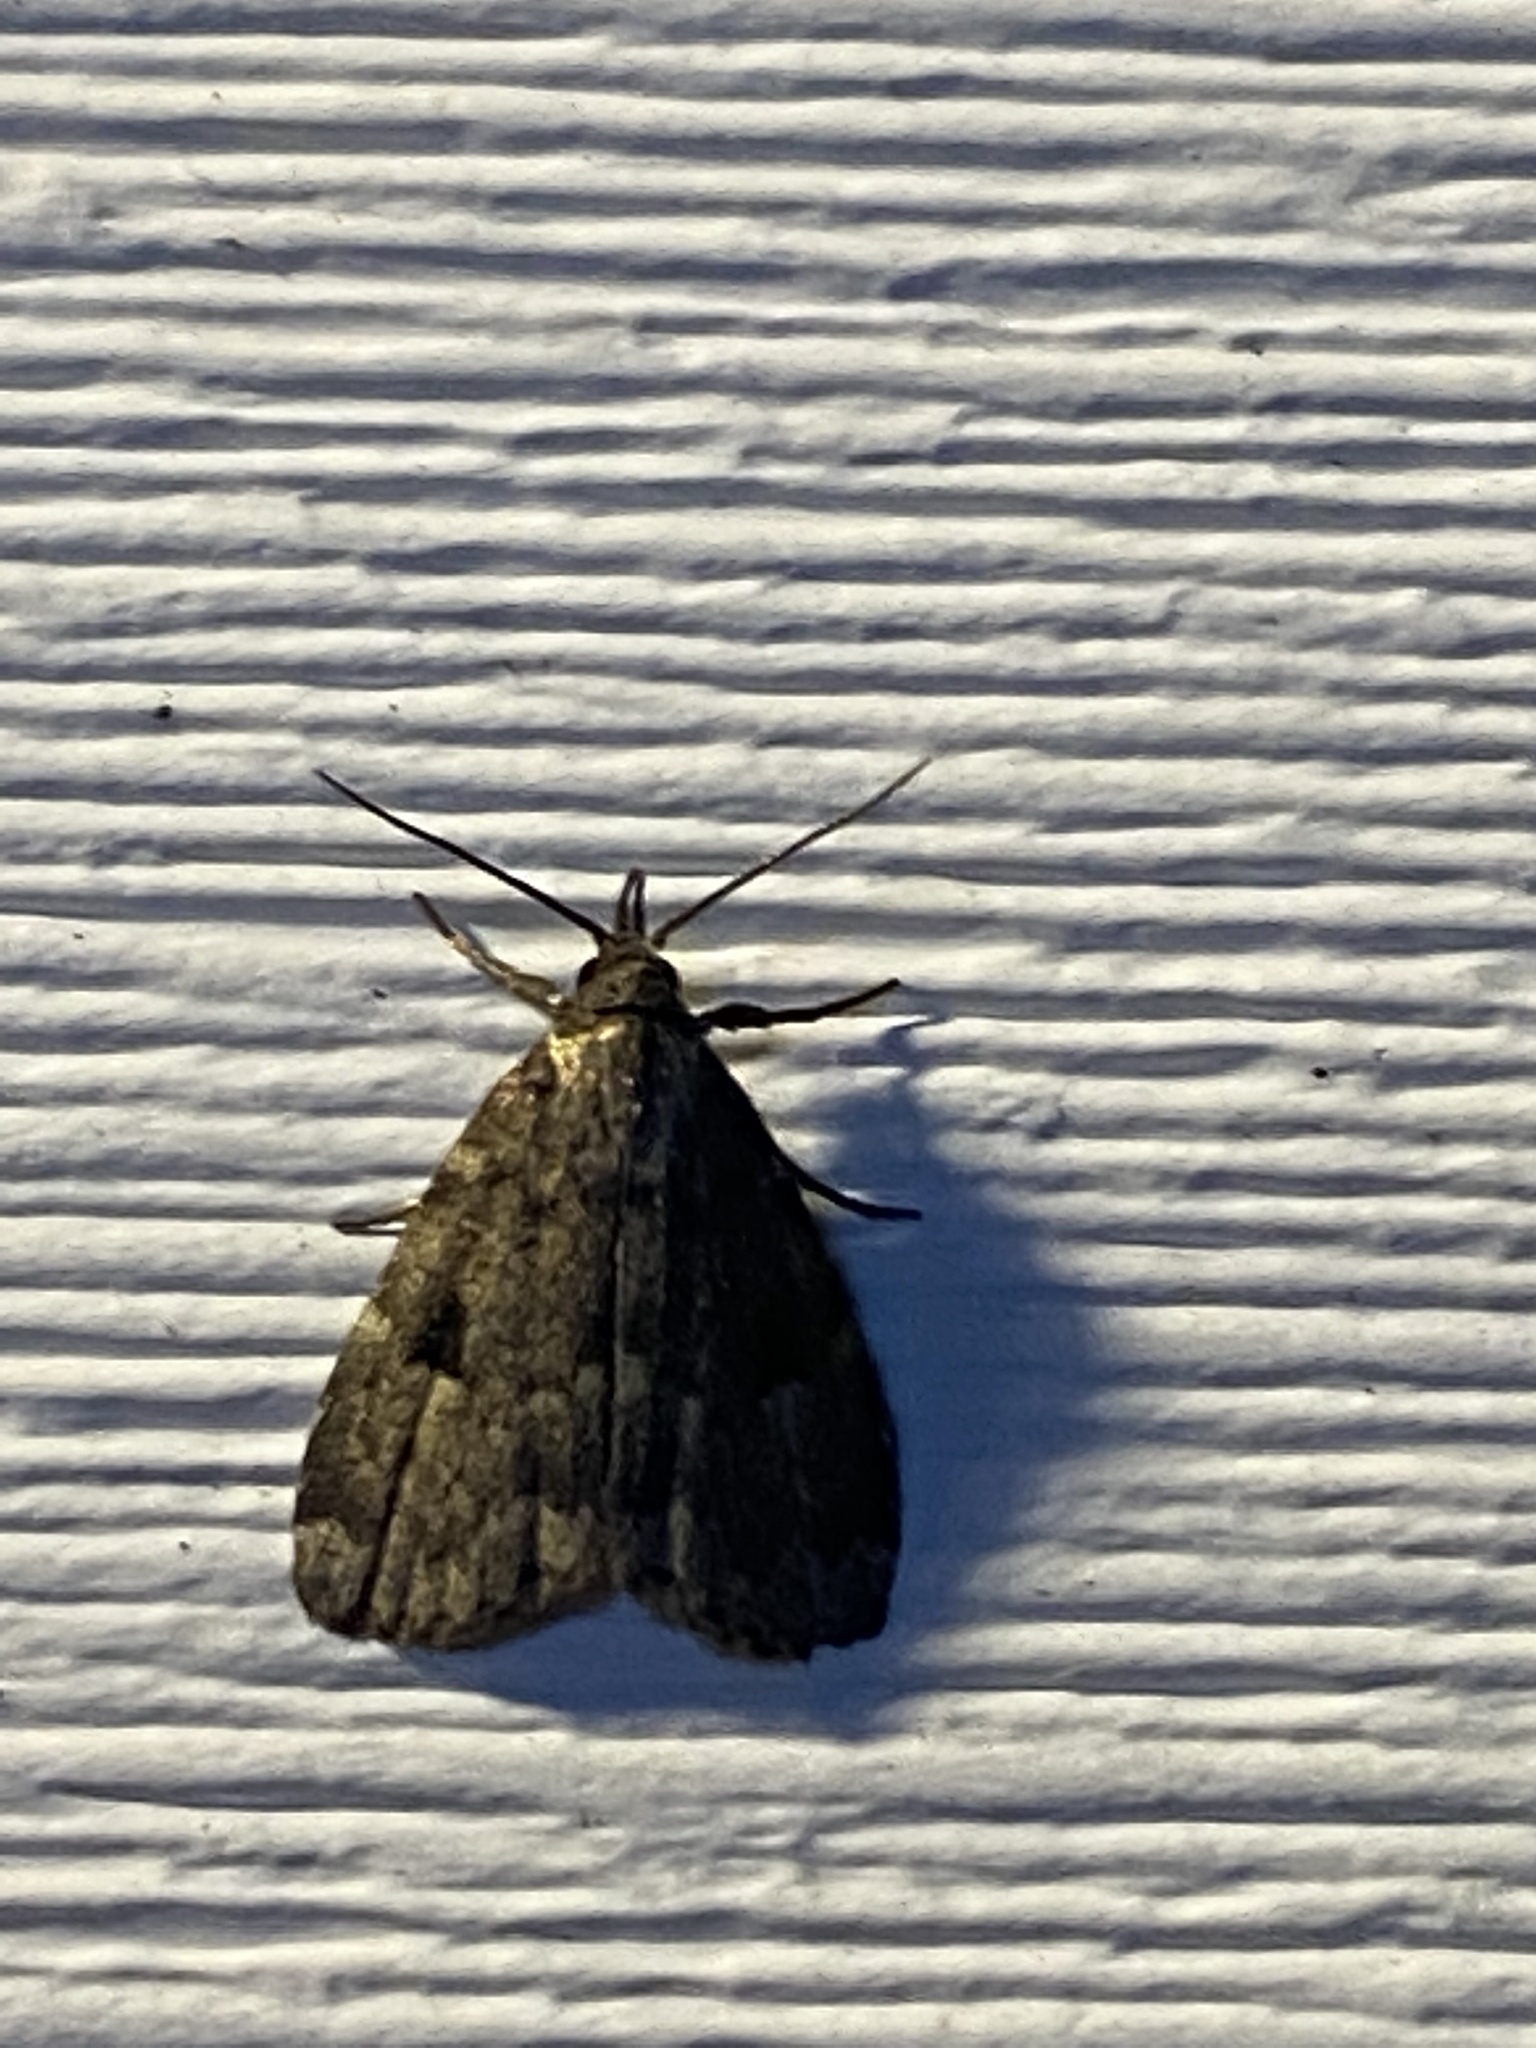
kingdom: Animalia
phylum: Arthropoda
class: Insecta
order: Lepidoptera
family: Erebidae
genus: Paradelta
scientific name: Paradelta Parahypenodes quadralis
